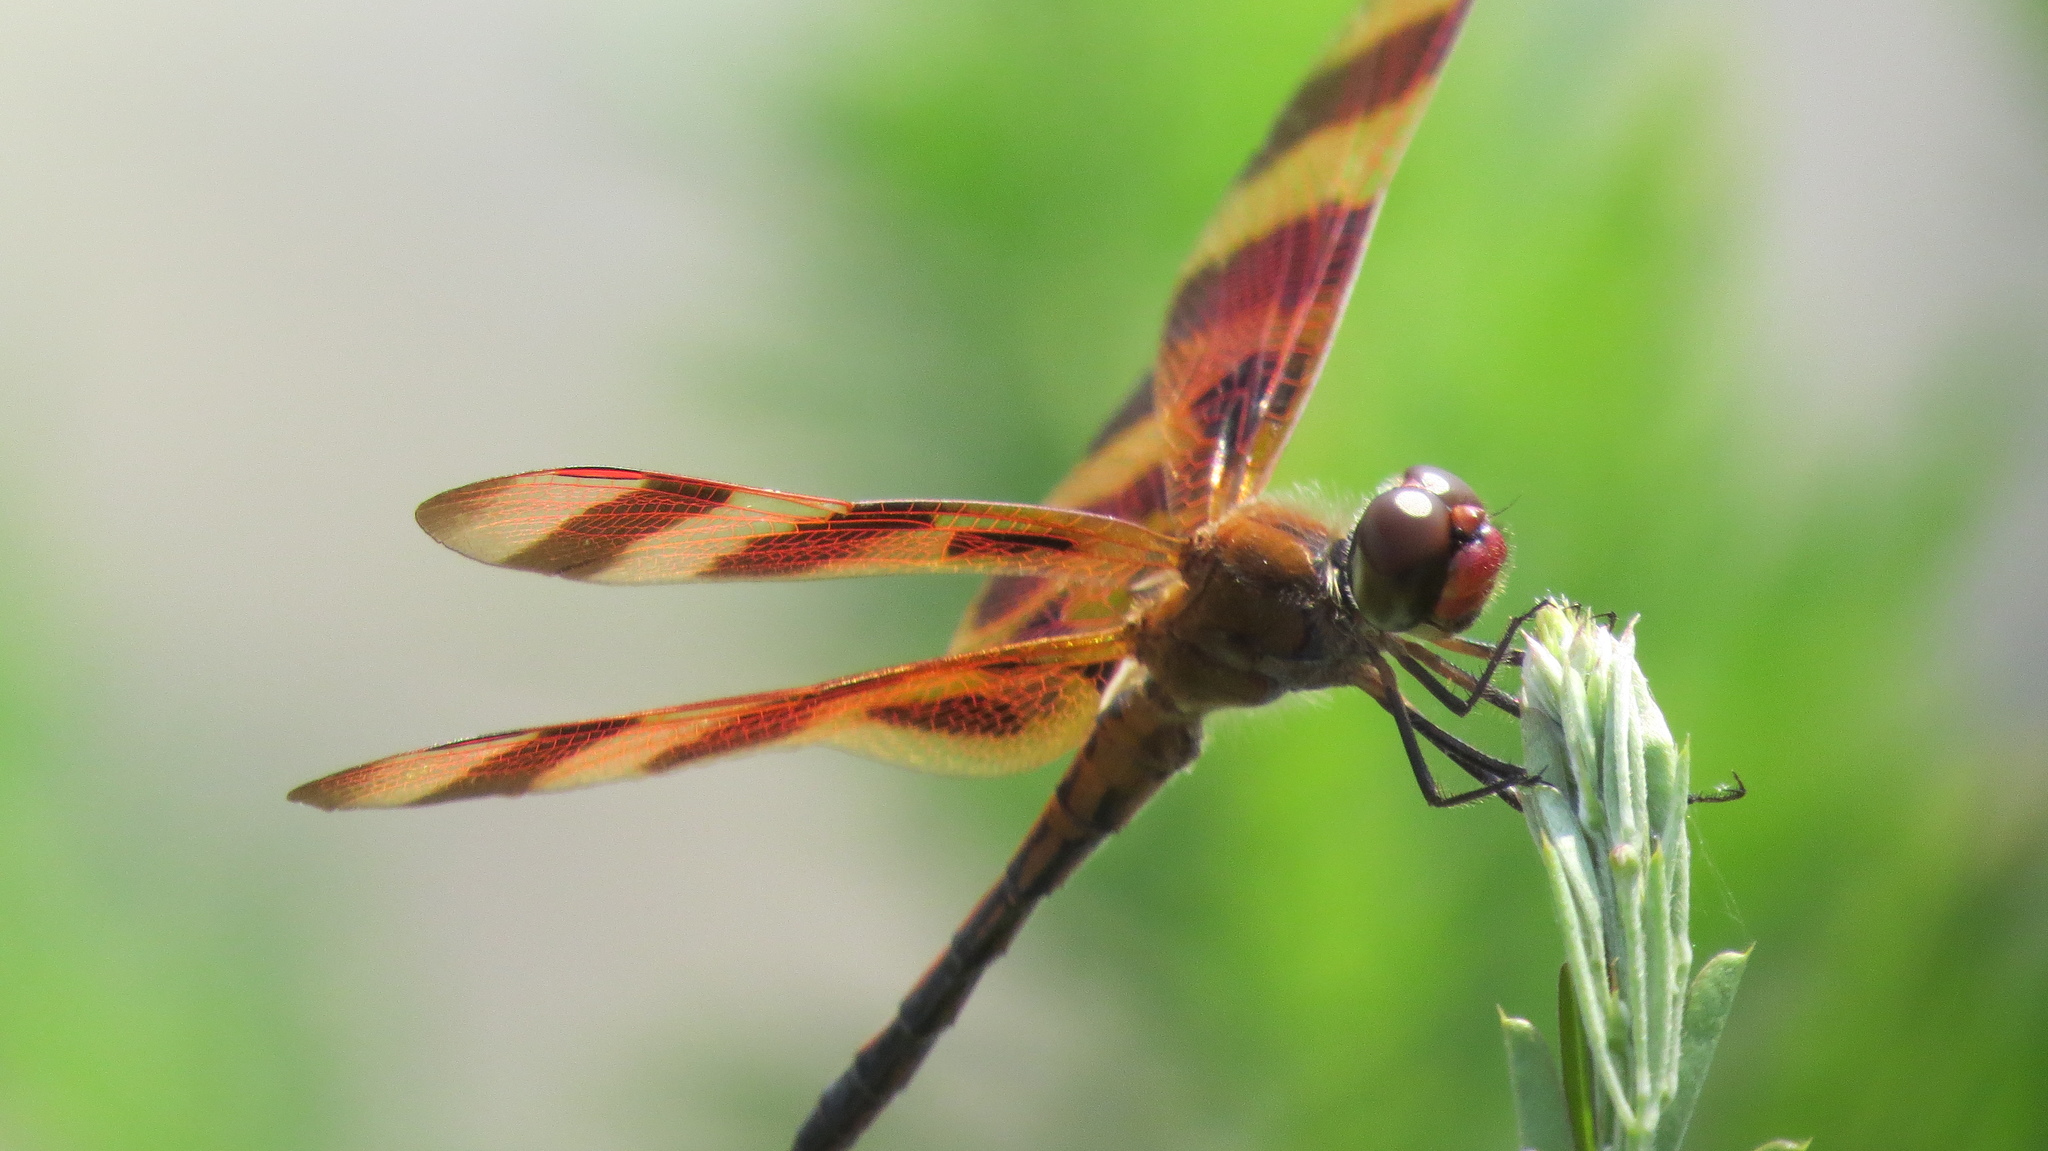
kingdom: Animalia
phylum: Arthropoda
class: Insecta
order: Odonata
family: Libellulidae
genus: Celithemis
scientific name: Celithemis eponina
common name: Halloween pennant
